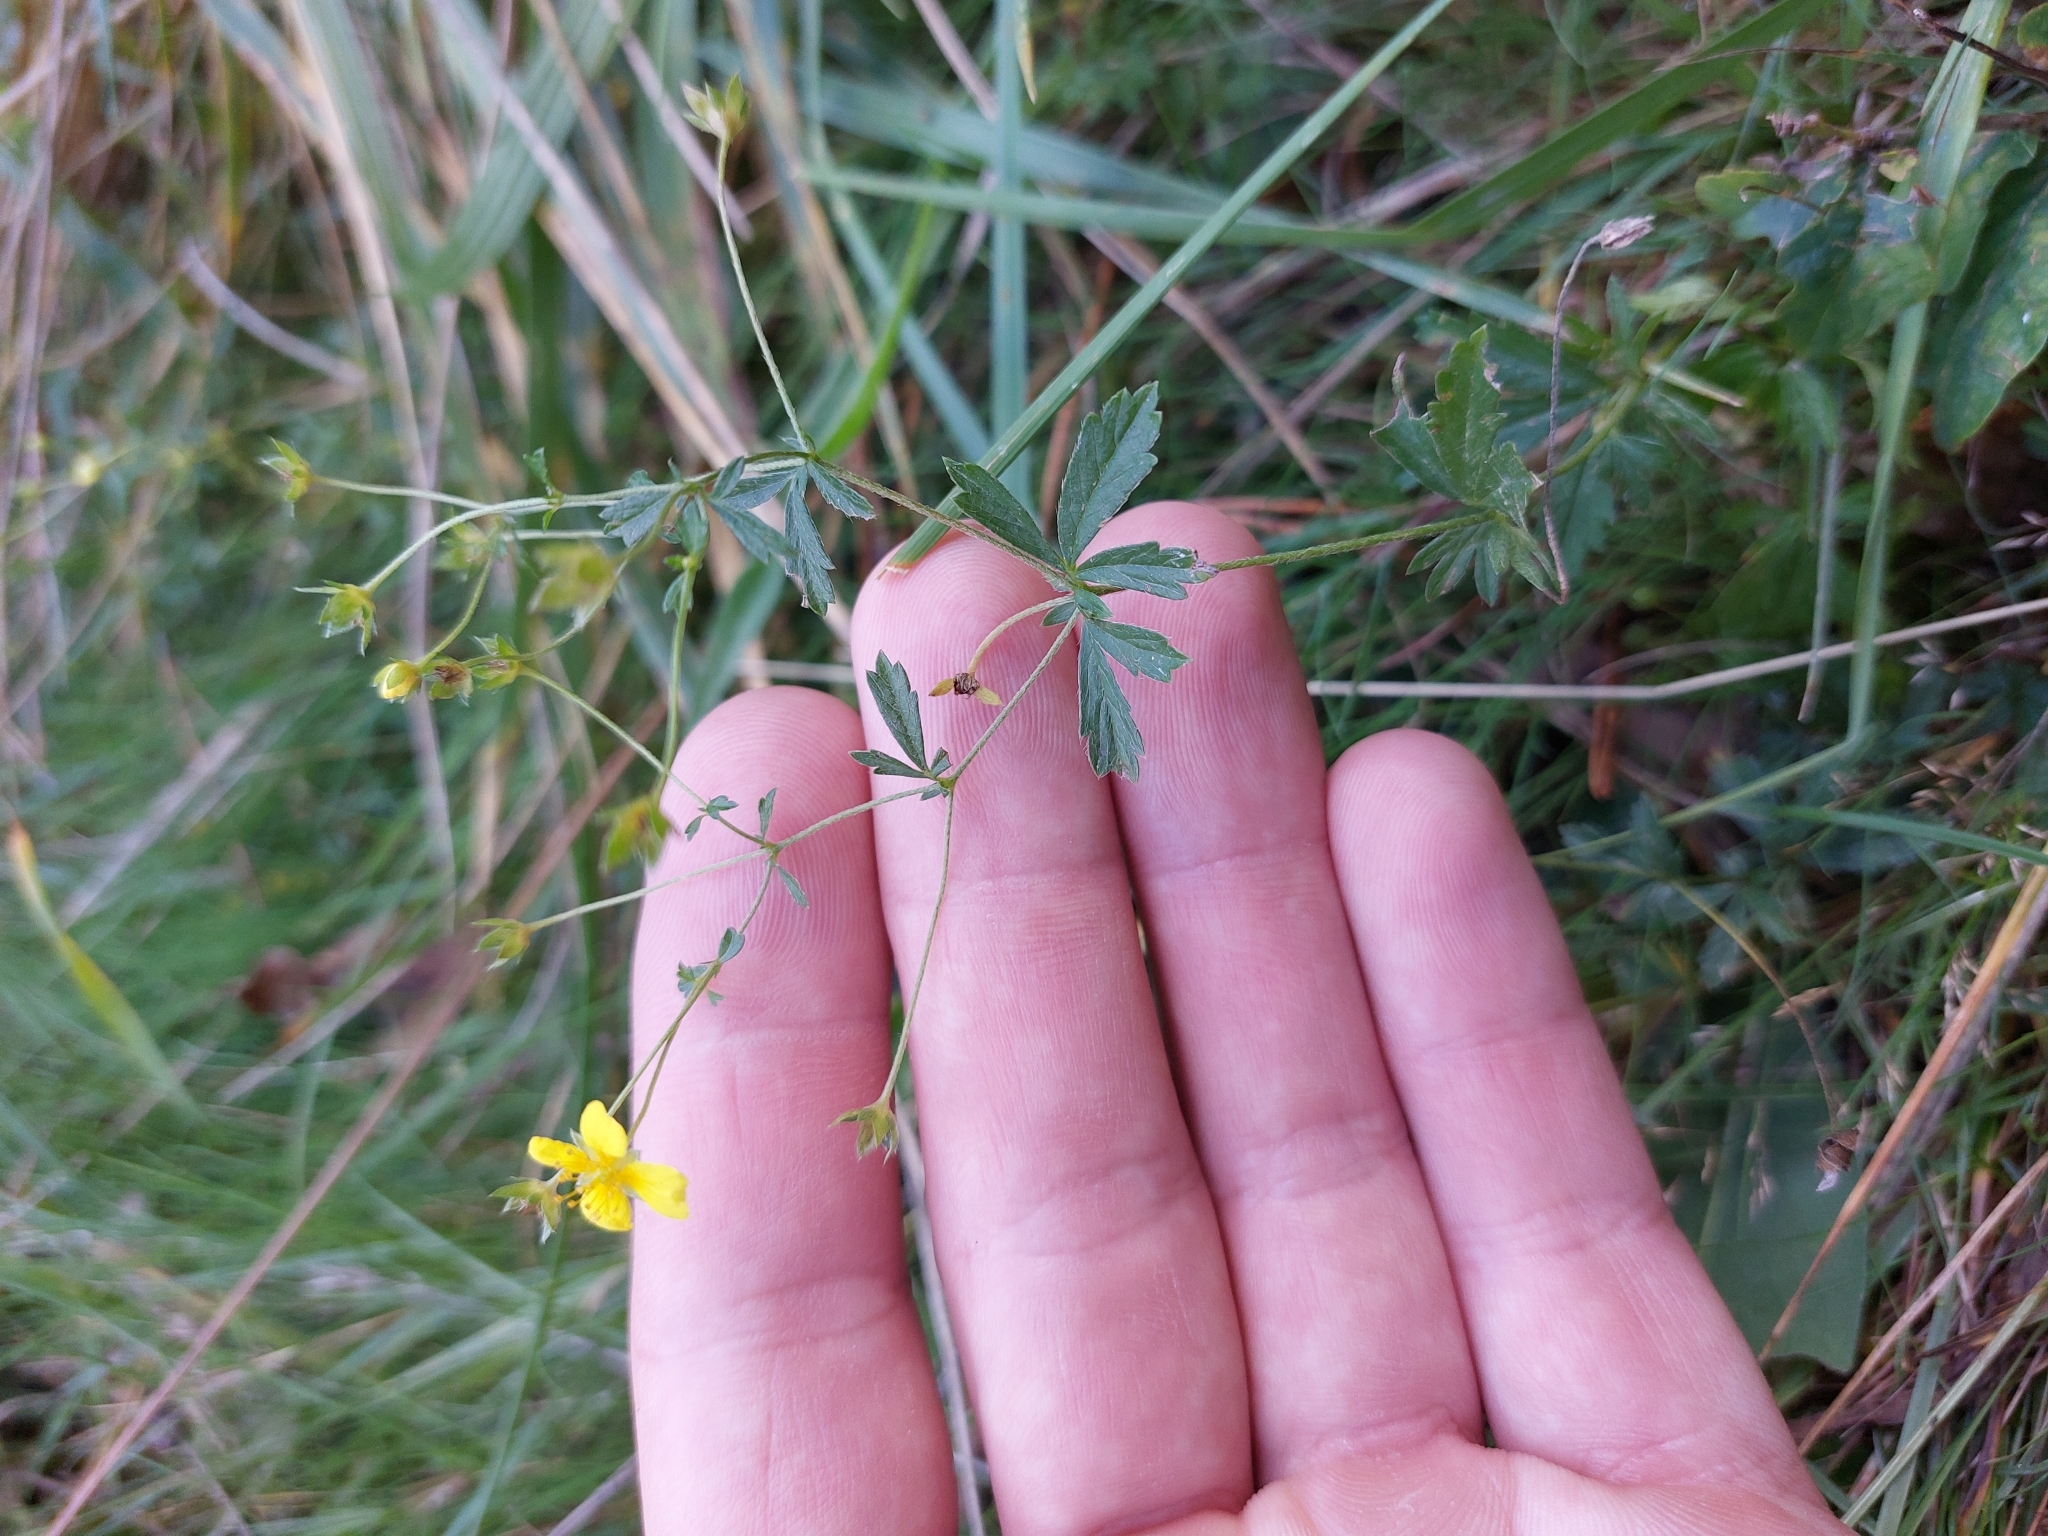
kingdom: Plantae
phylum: Tracheophyta
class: Magnoliopsida
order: Rosales
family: Rosaceae
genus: Potentilla
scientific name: Potentilla erecta
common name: Tormentil
